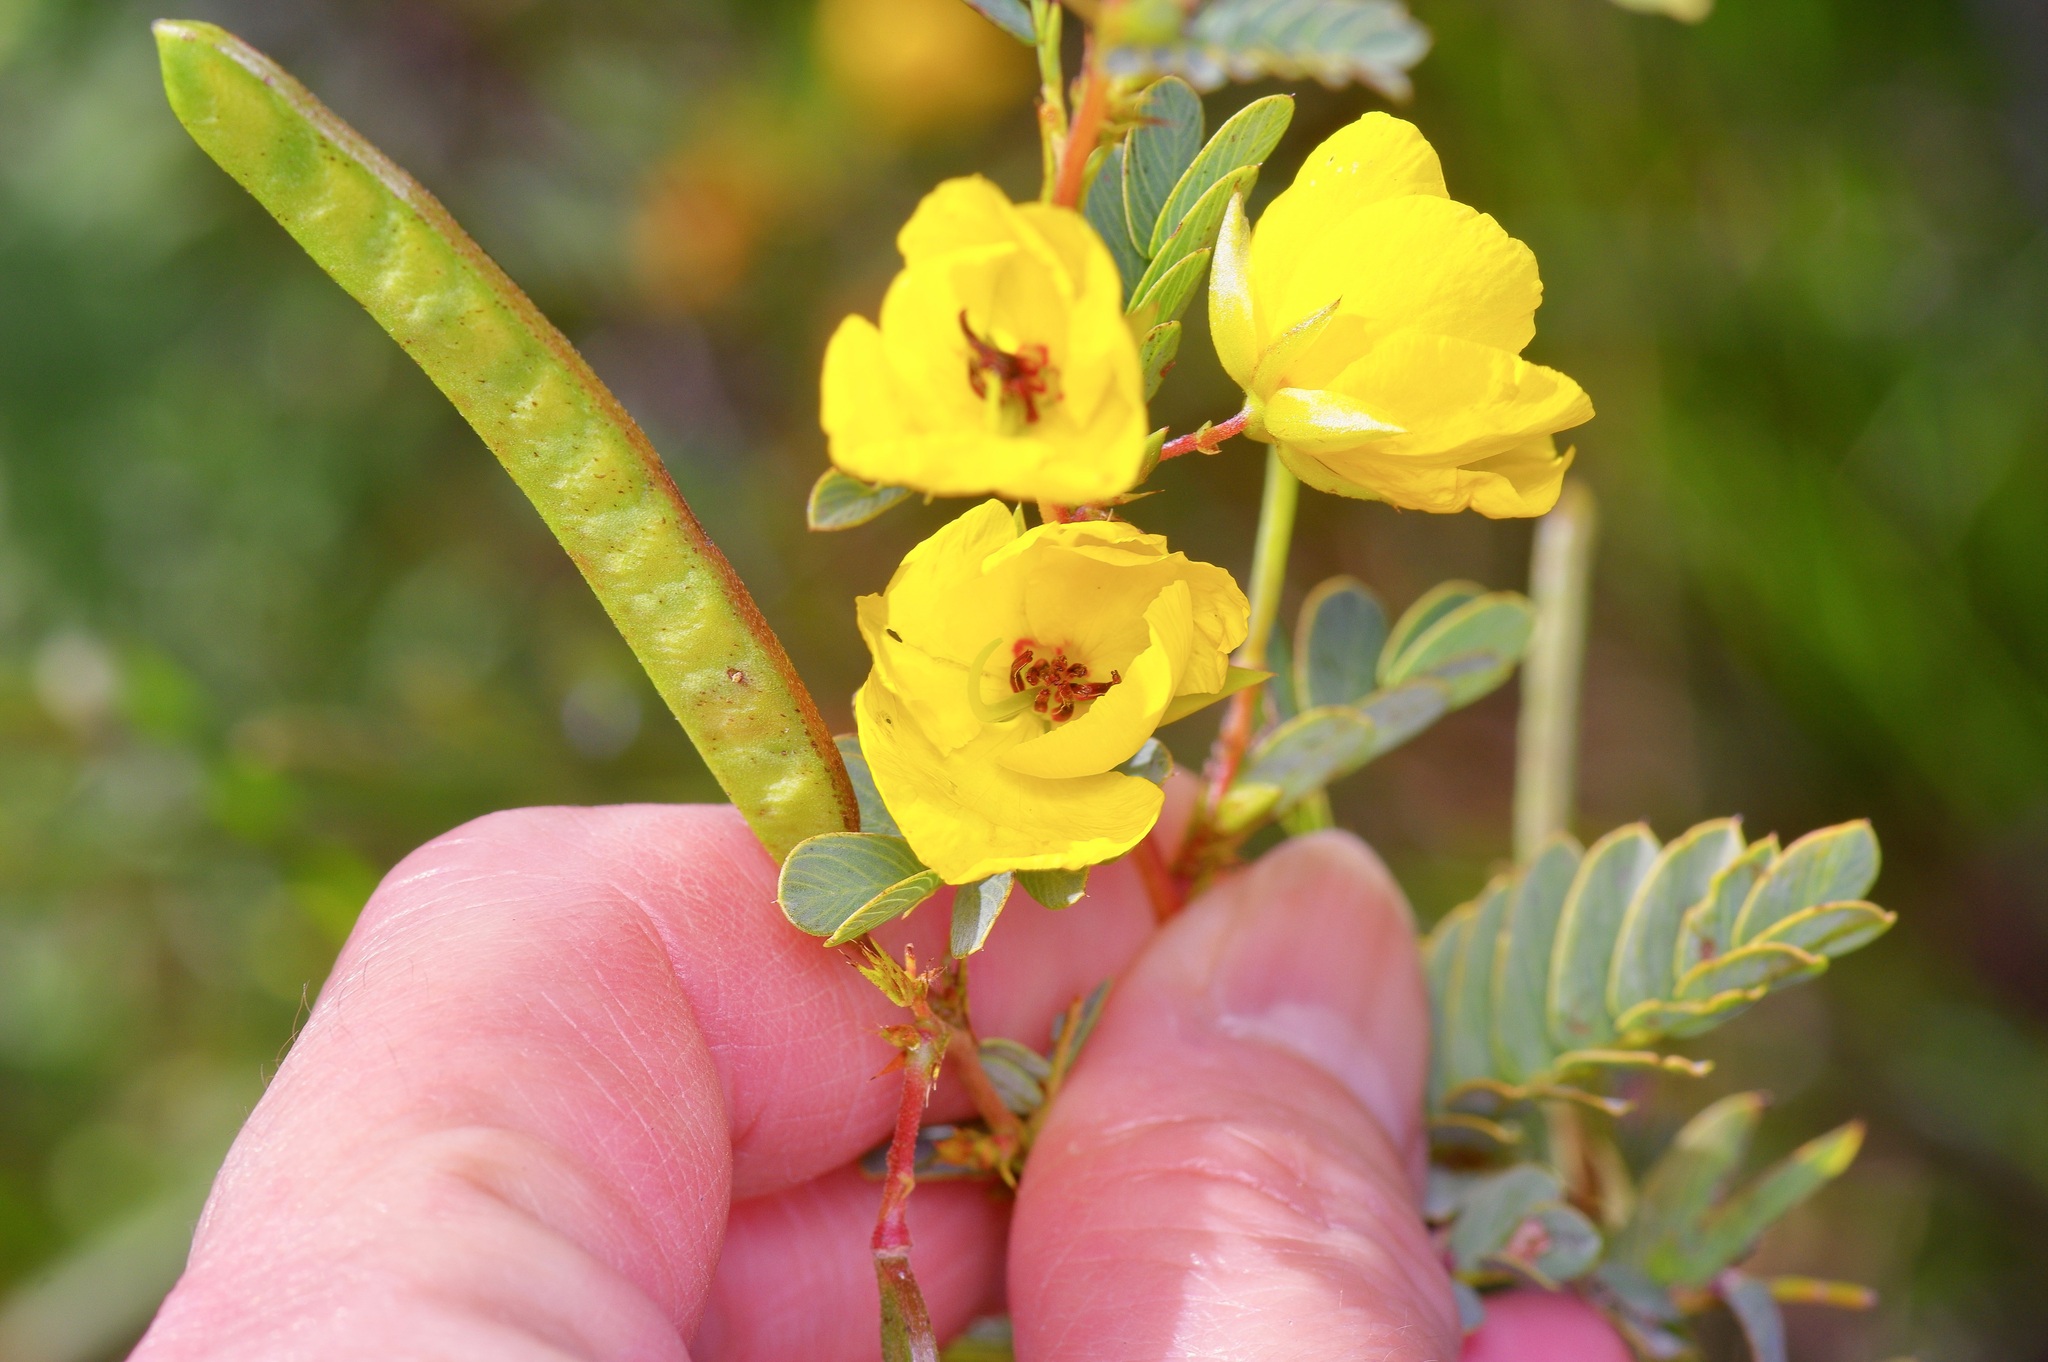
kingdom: Plantae
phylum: Tracheophyta
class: Magnoliopsida
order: Fabales
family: Fabaceae
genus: Chamaecrista
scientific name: Chamaecrista fasciculata
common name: Golden cassia
